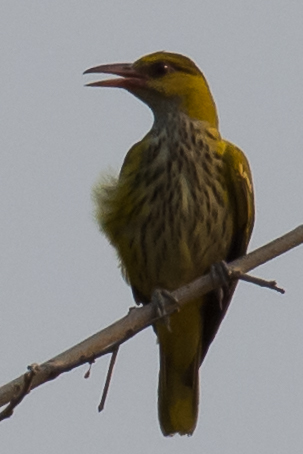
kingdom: Animalia
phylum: Chordata
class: Aves
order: Passeriformes
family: Oriolidae
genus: Oriolus
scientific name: Oriolus chinensis
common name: Black-naped oriole
